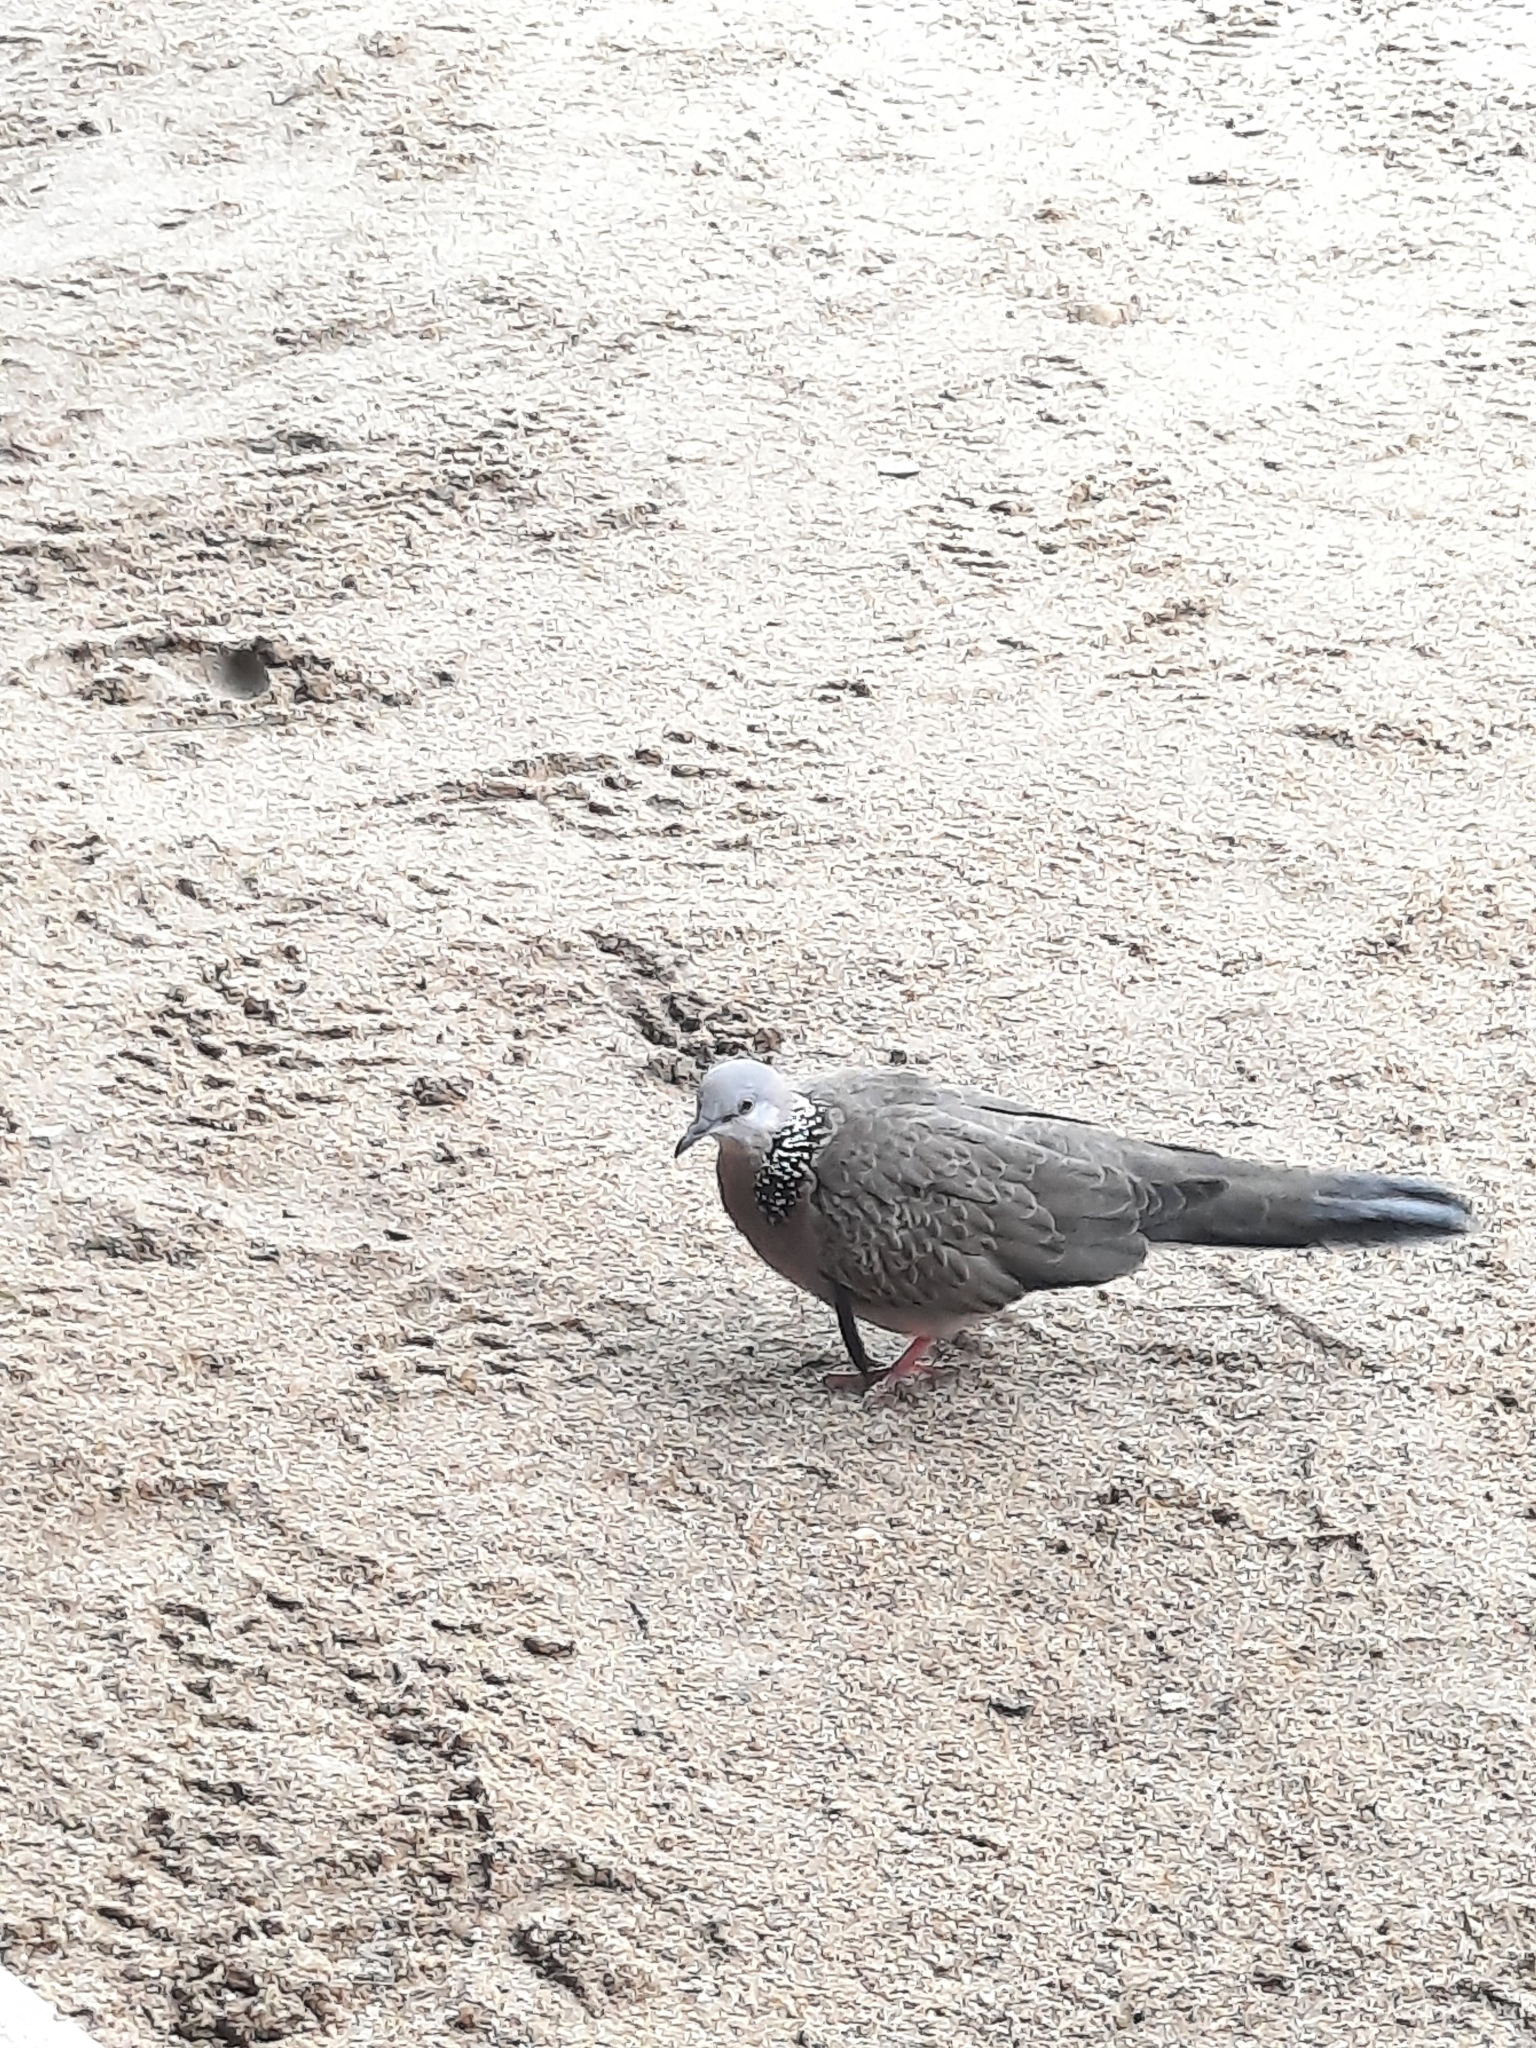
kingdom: Animalia
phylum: Chordata
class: Aves
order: Columbiformes
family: Columbidae
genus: Spilopelia
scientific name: Spilopelia chinensis
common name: Spotted dove
